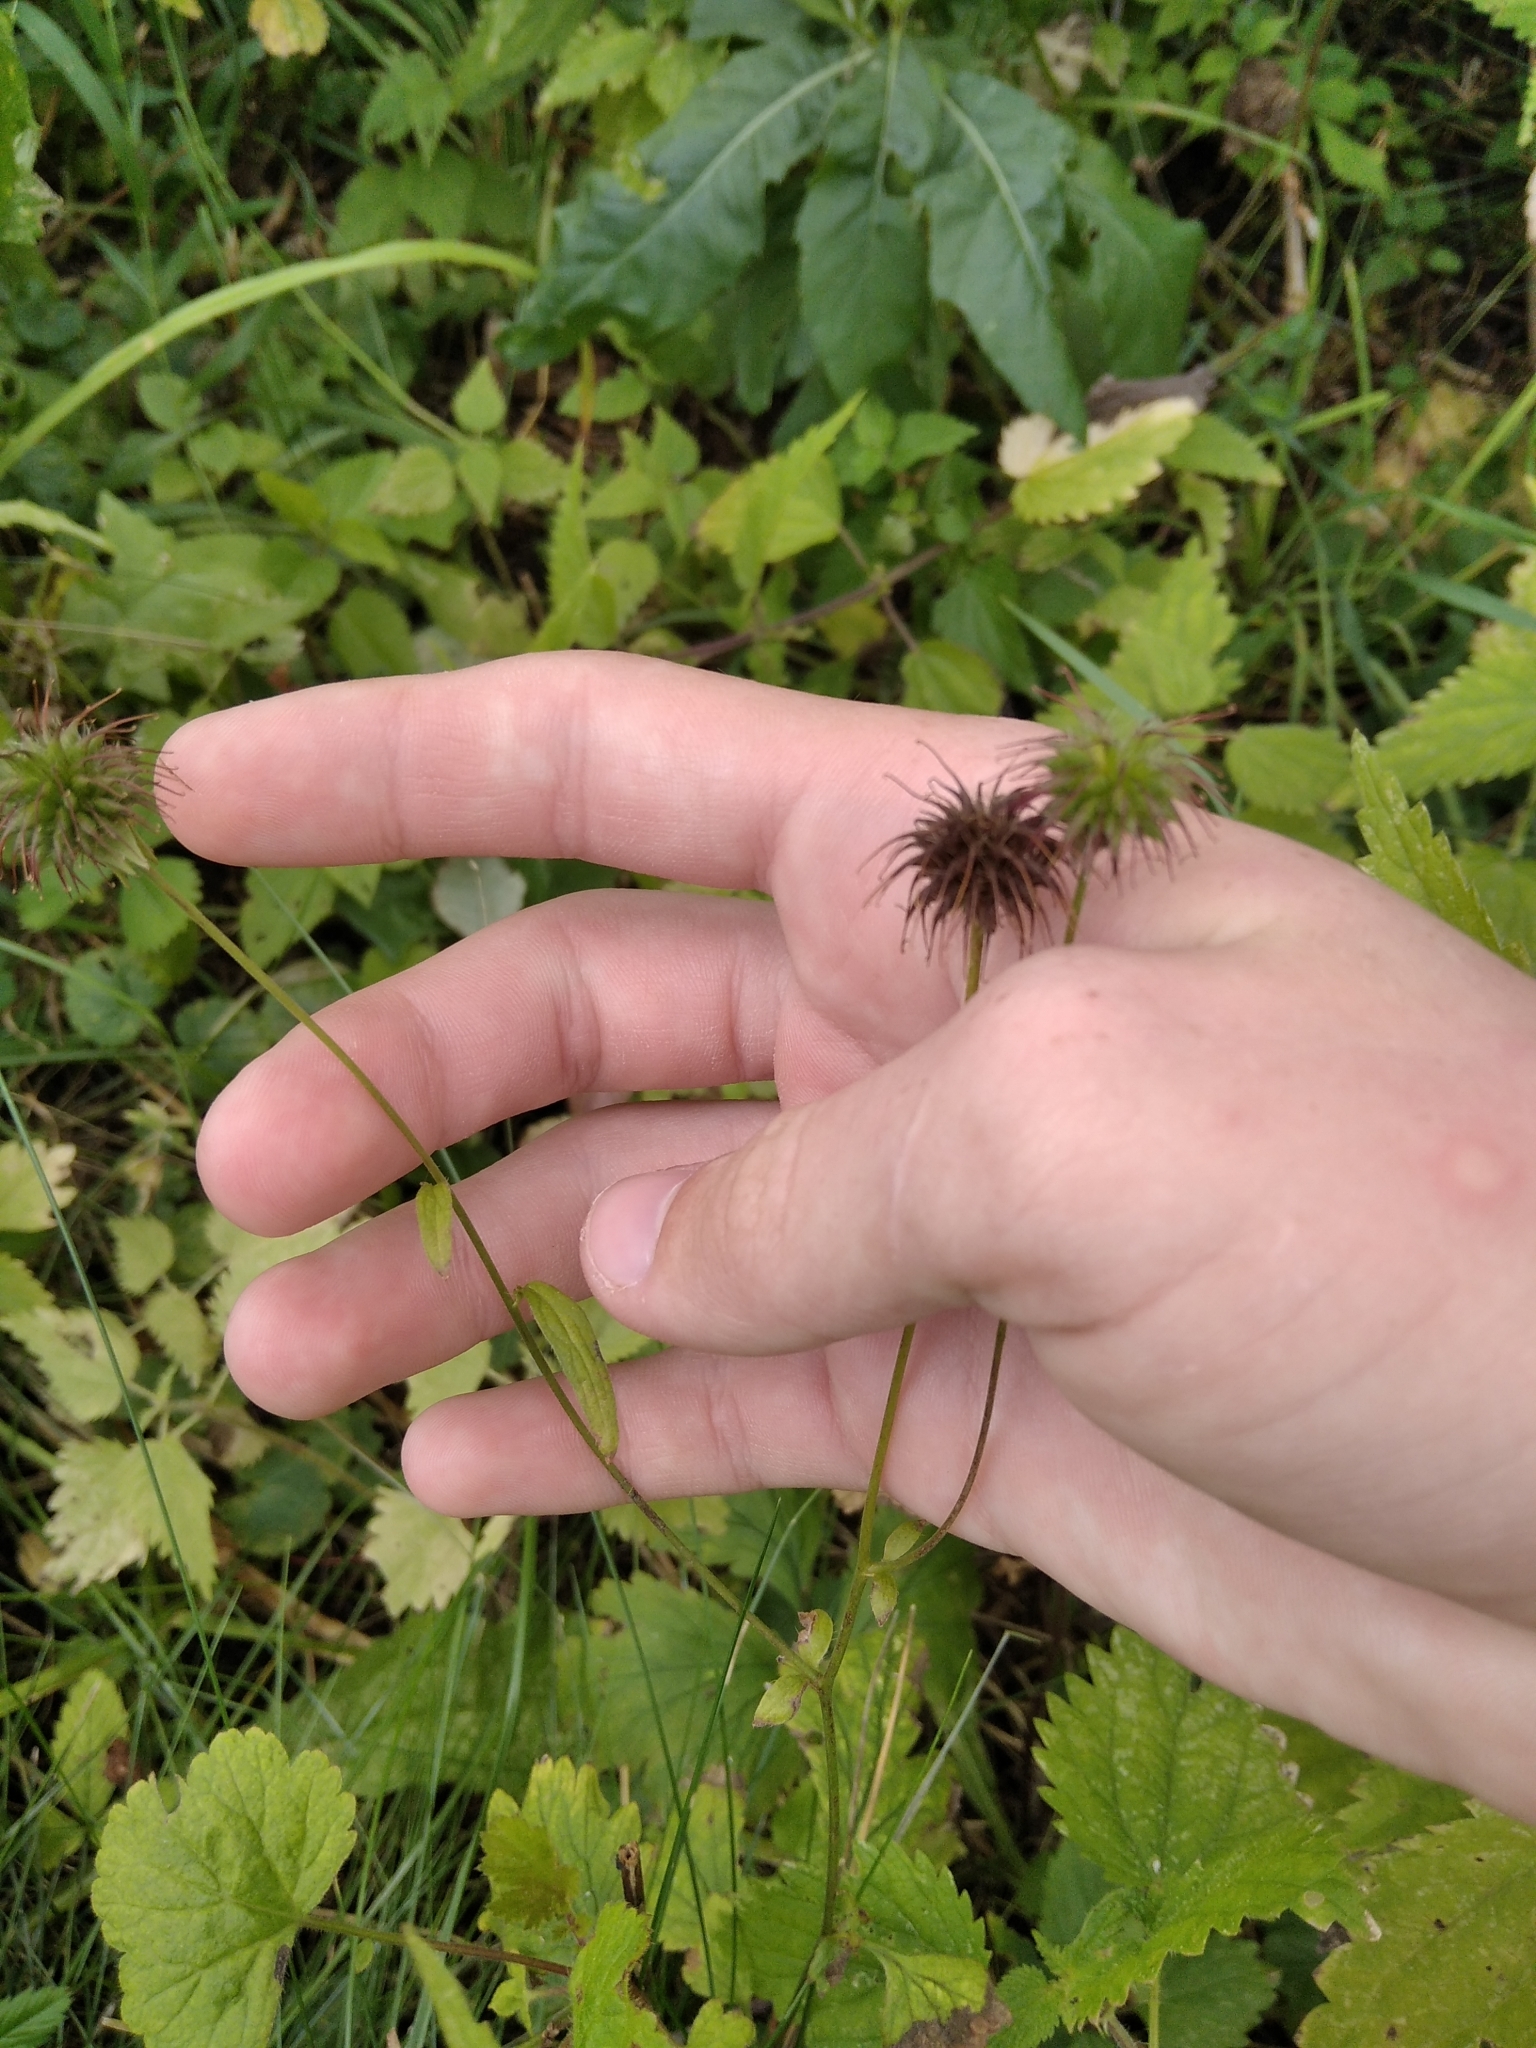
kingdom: Plantae
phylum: Tracheophyta
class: Magnoliopsida
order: Rosales
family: Rosaceae
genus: Geum
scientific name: Geum urbanum
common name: Wood avens
